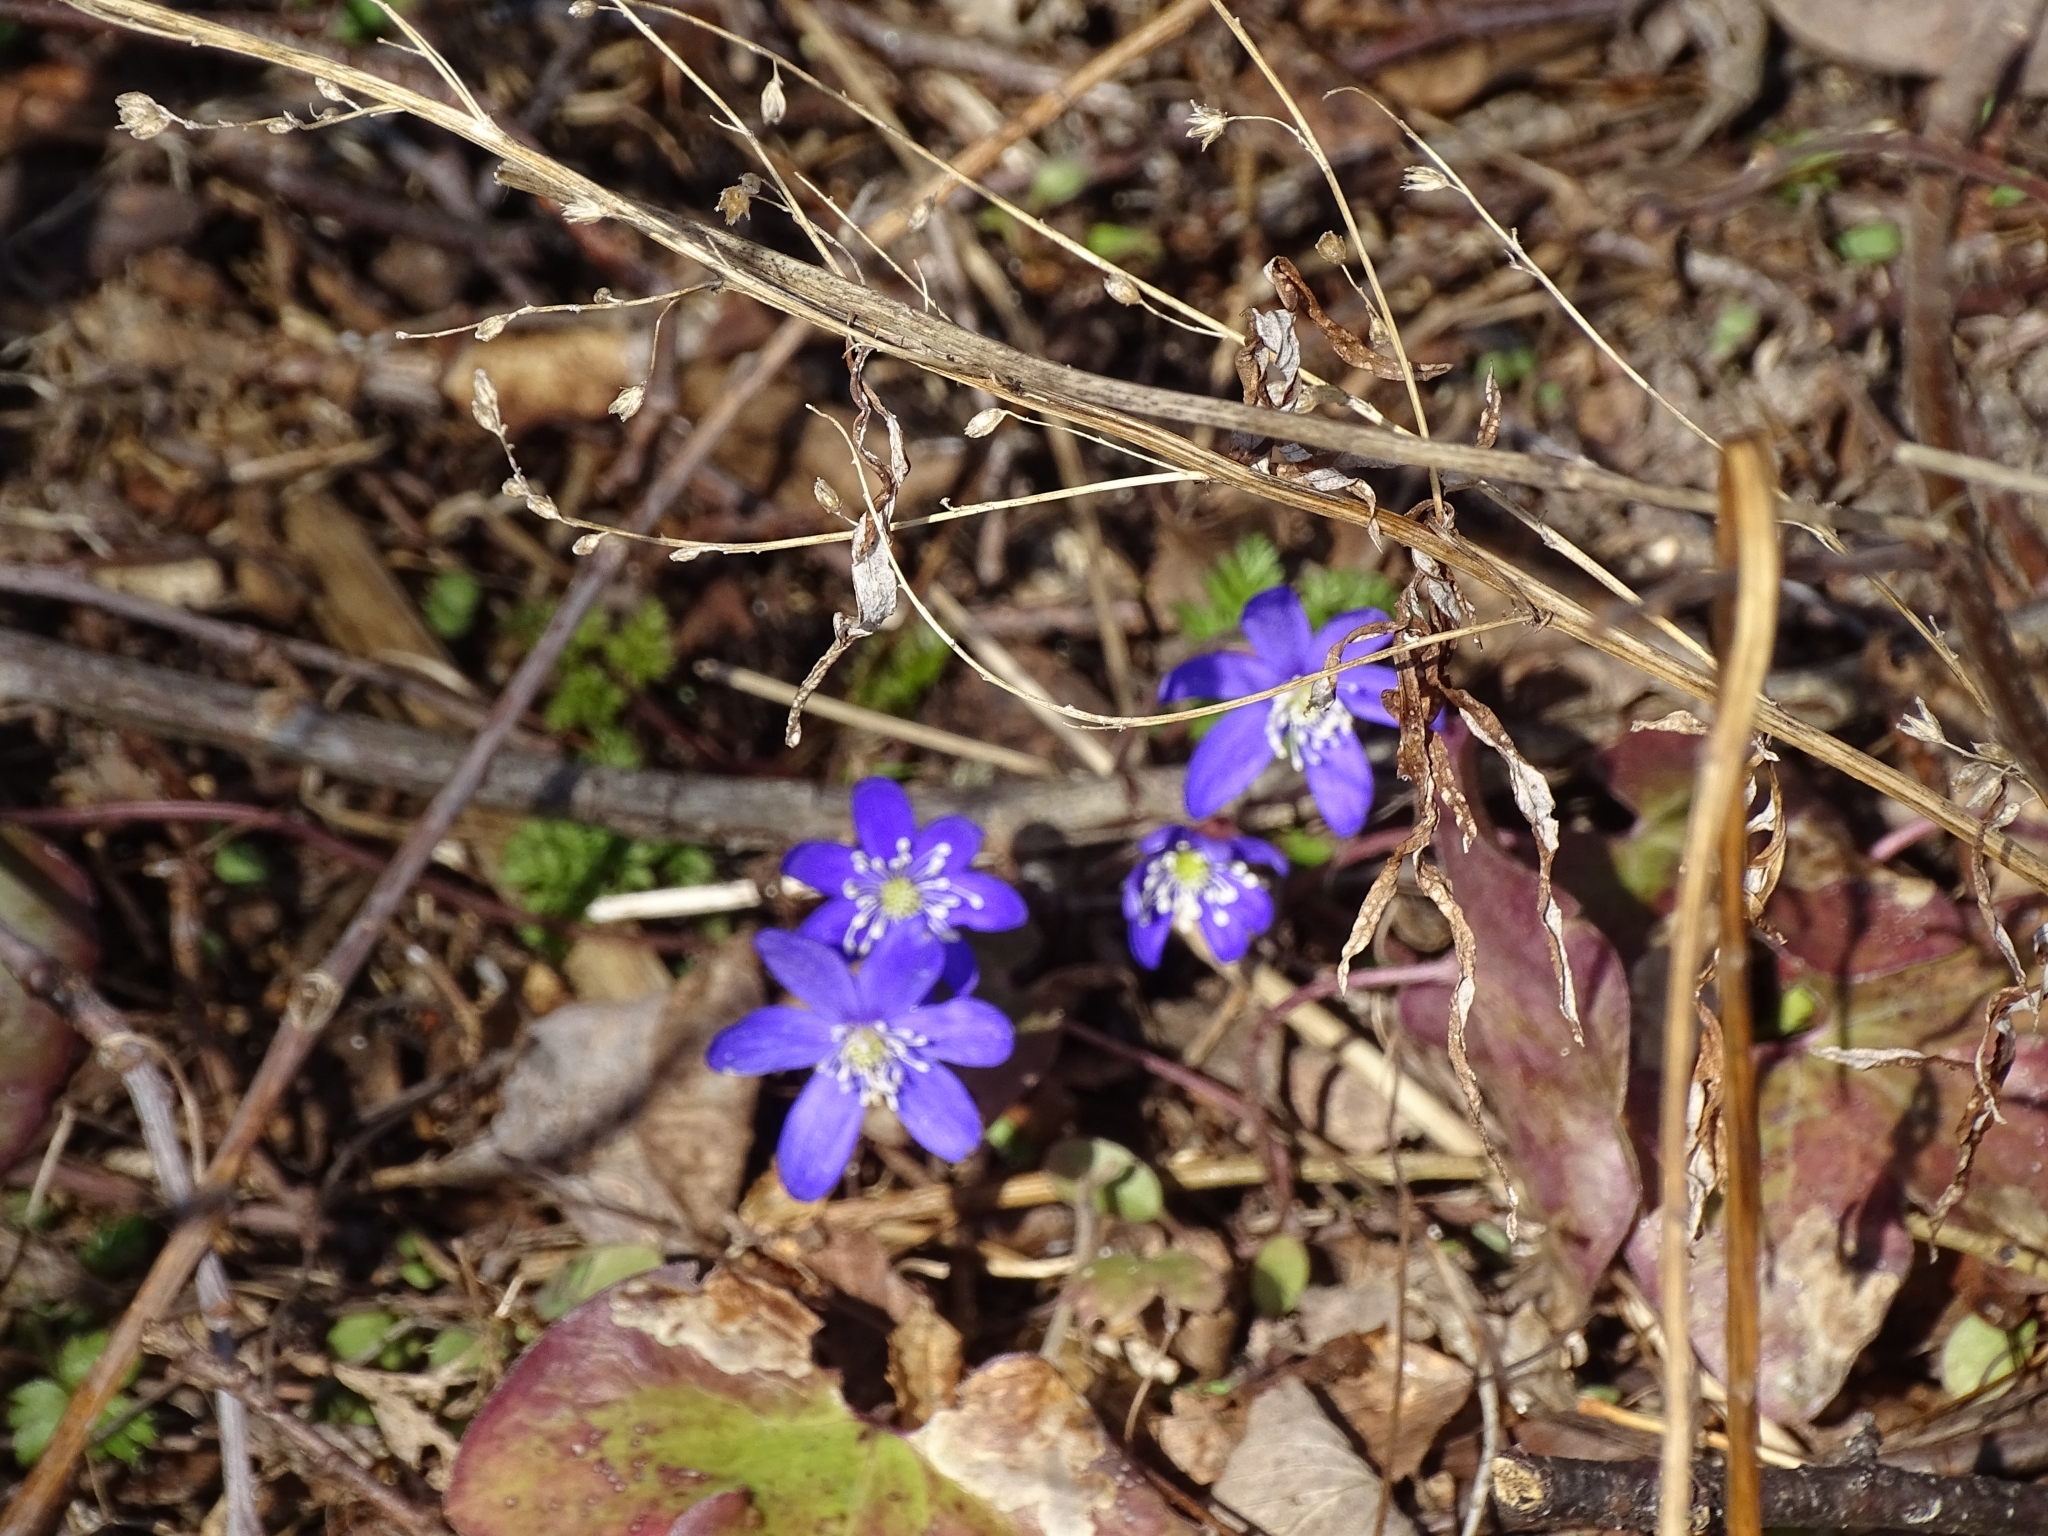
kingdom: Plantae
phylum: Tracheophyta
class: Magnoliopsida
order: Ranunculales
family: Ranunculaceae
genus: Hepatica
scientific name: Hepatica nobilis
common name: Liverleaf
